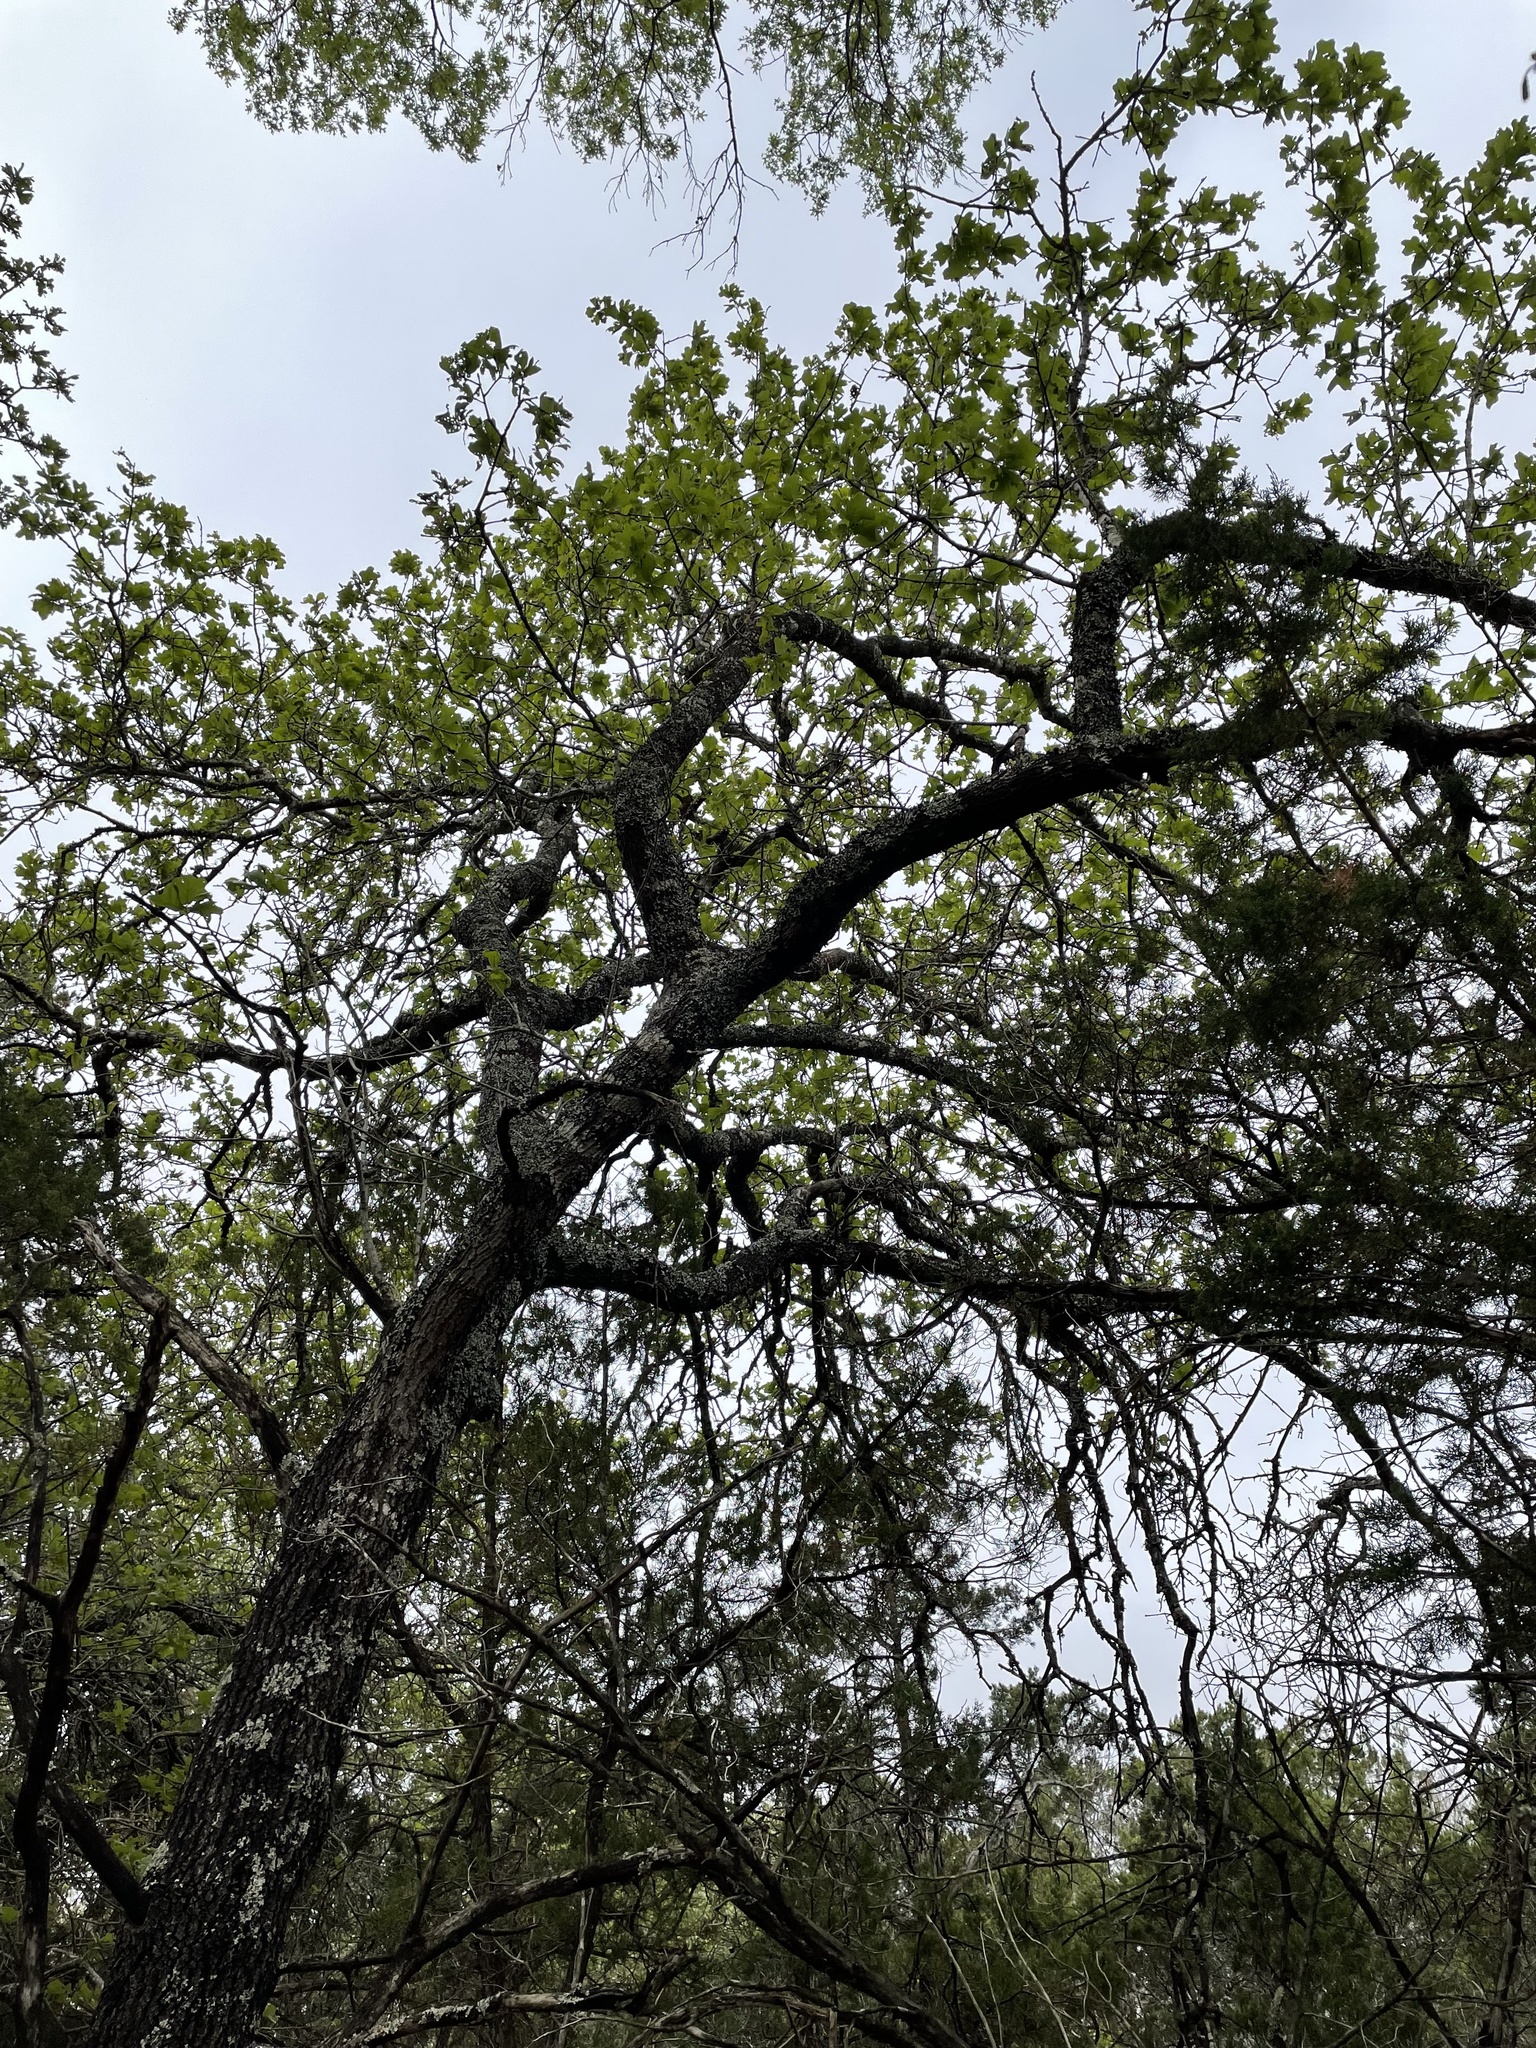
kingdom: Plantae
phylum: Tracheophyta
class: Magnoliopsida
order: Fagales
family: Fagaceae
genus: Quercus
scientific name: Quercus marilandica
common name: Blackjack oak
